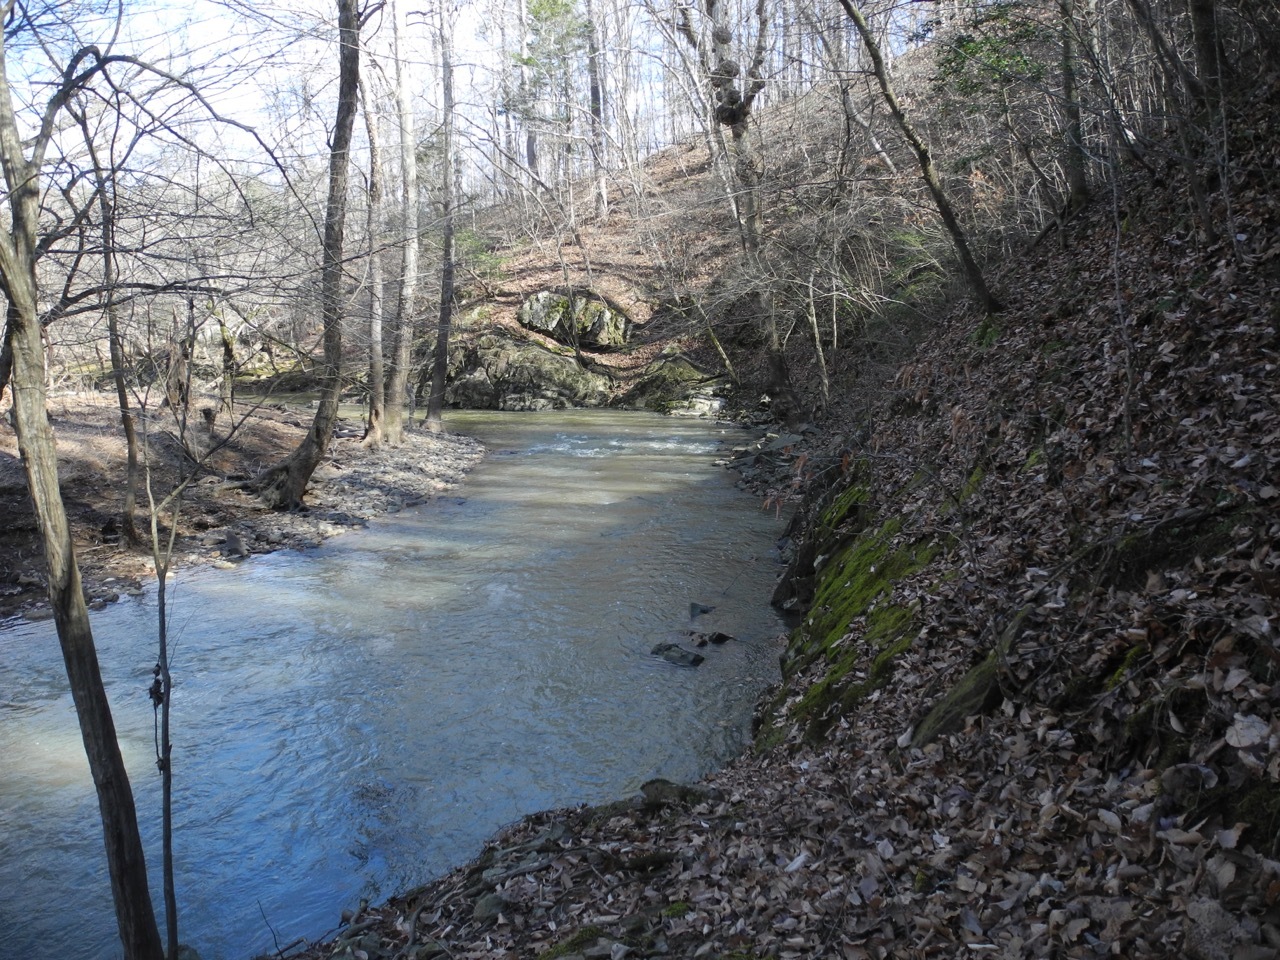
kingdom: Plantae
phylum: Tracheophyta
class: Polypodiopsida
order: Polypodiales
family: Dryopteridaceae
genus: Dryopteris
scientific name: Dryopteris marginalis
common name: Marginal wood fern
